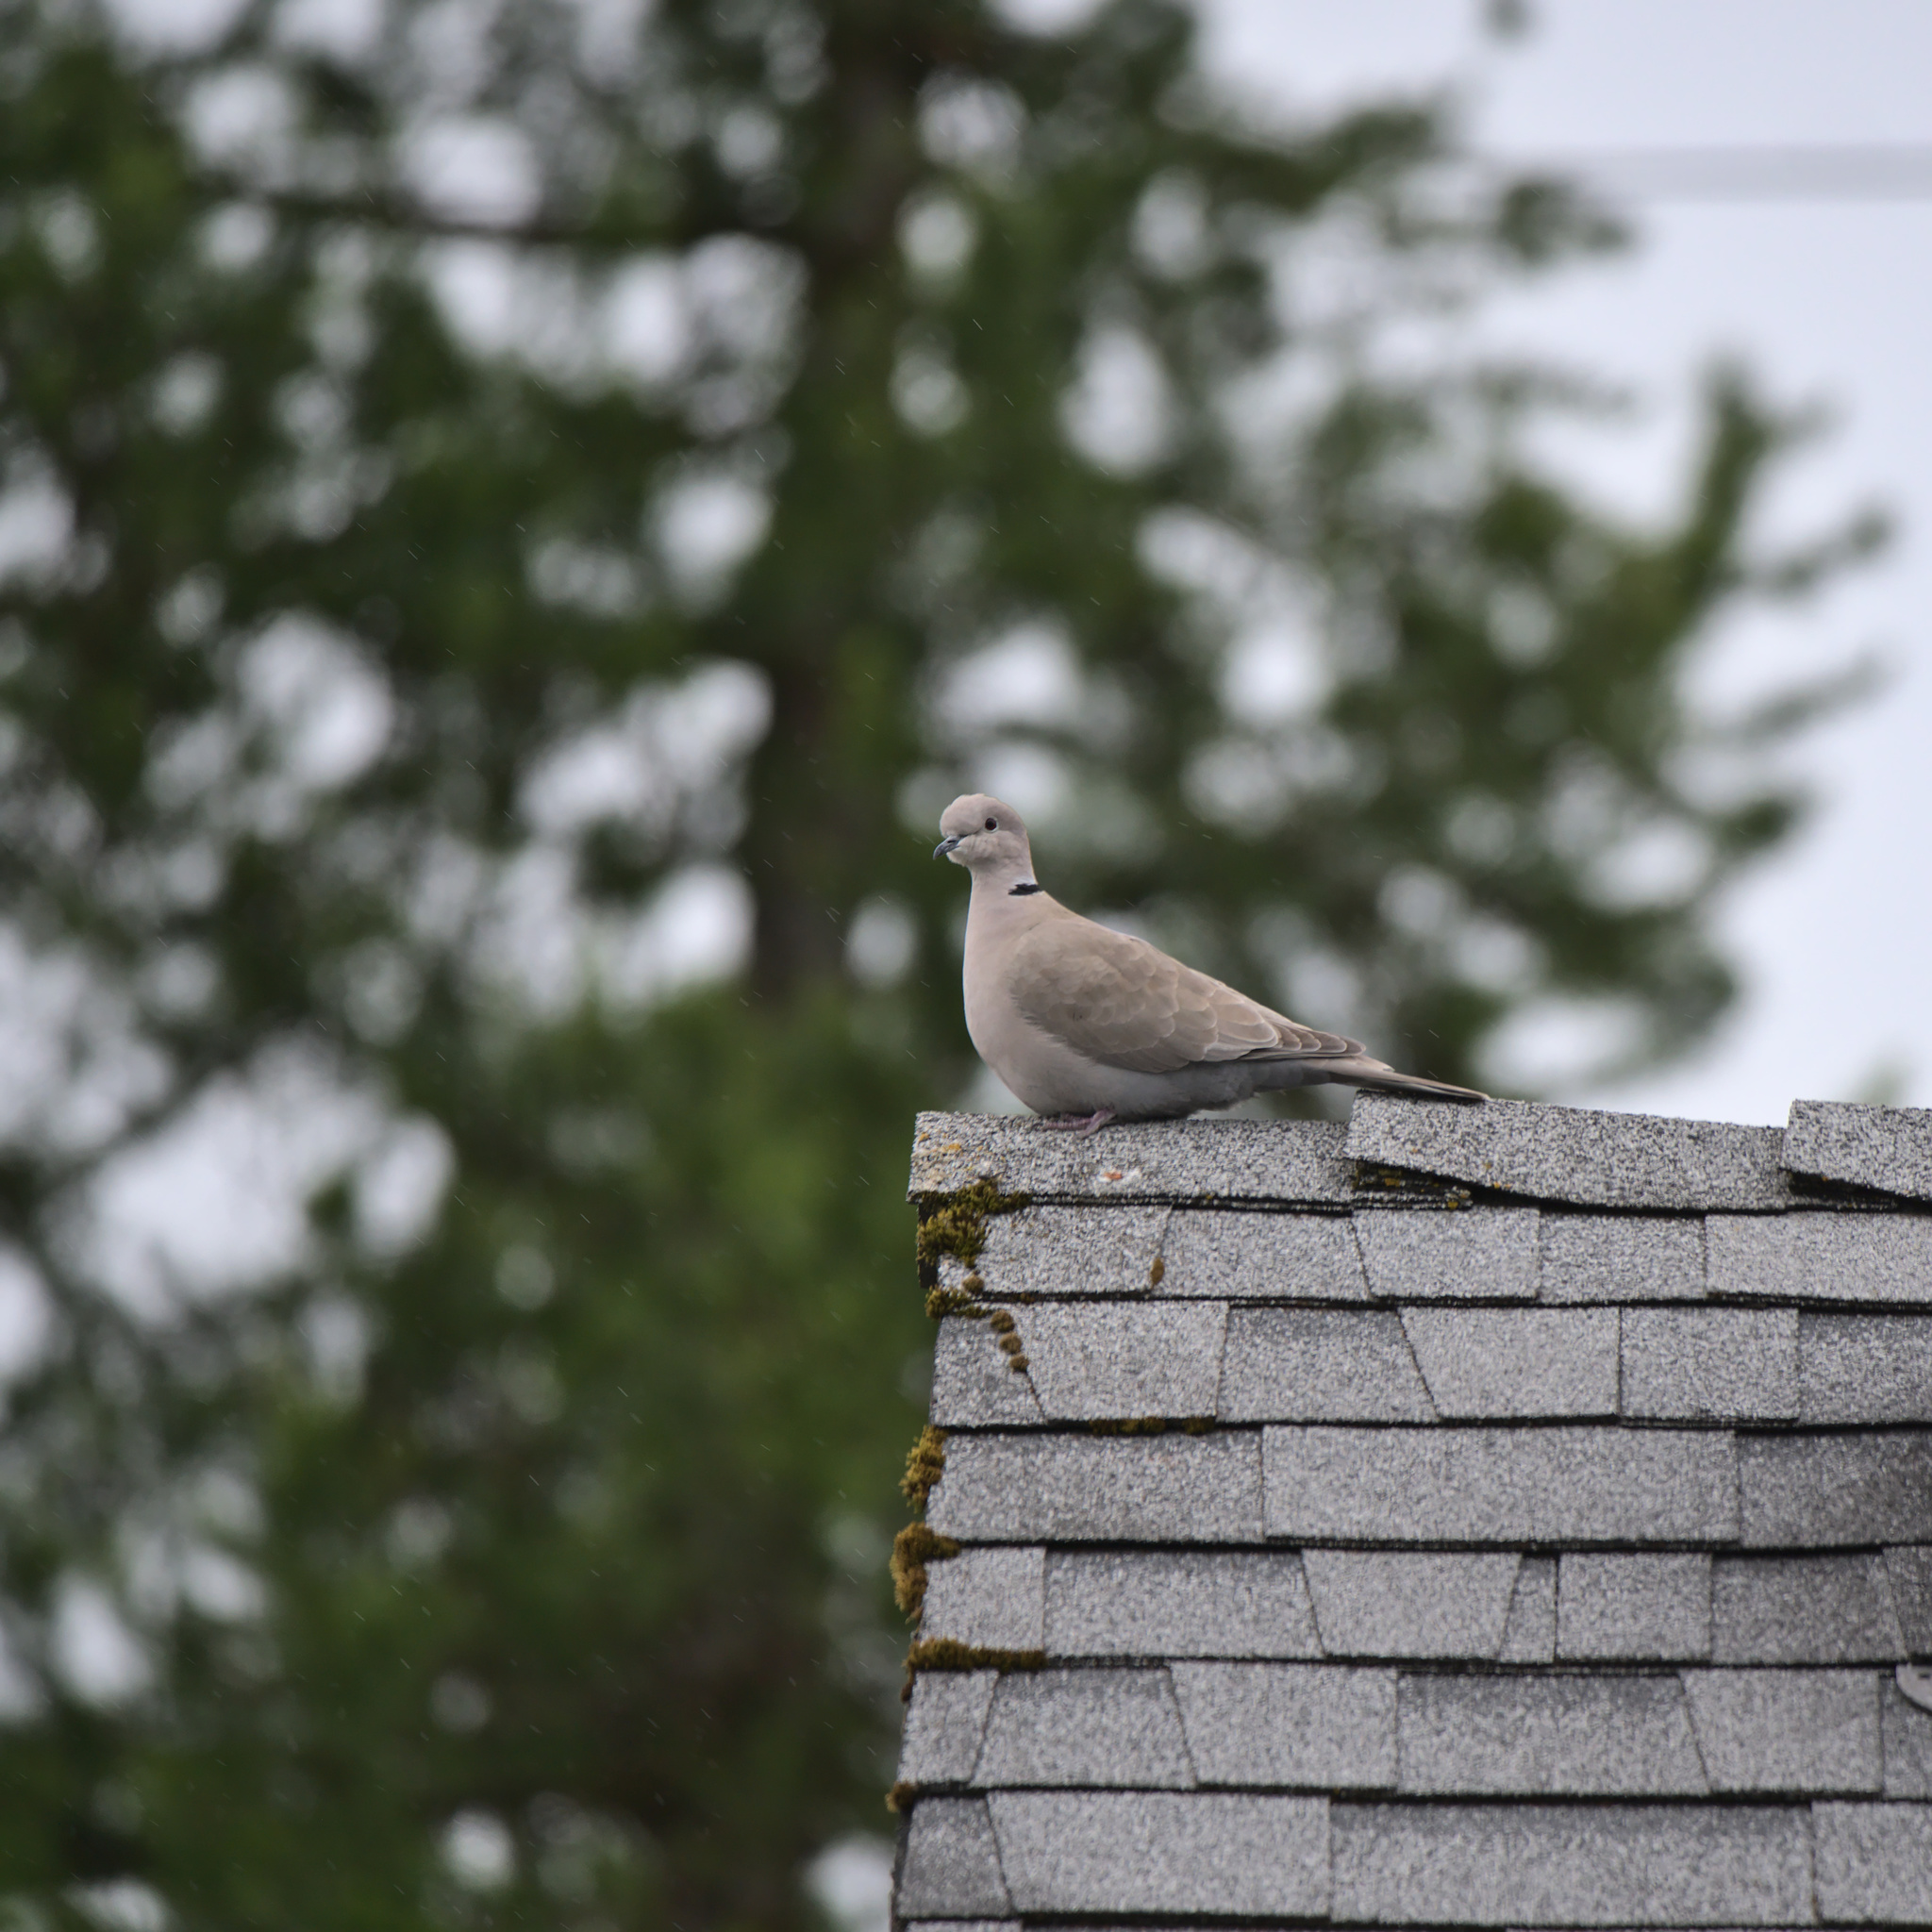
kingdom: Animalia
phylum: Chordata
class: Aves
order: Columbiformes
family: Columbidae
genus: Streptopelia
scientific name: Streptopelia decaocto
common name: Eurasian collared dove
